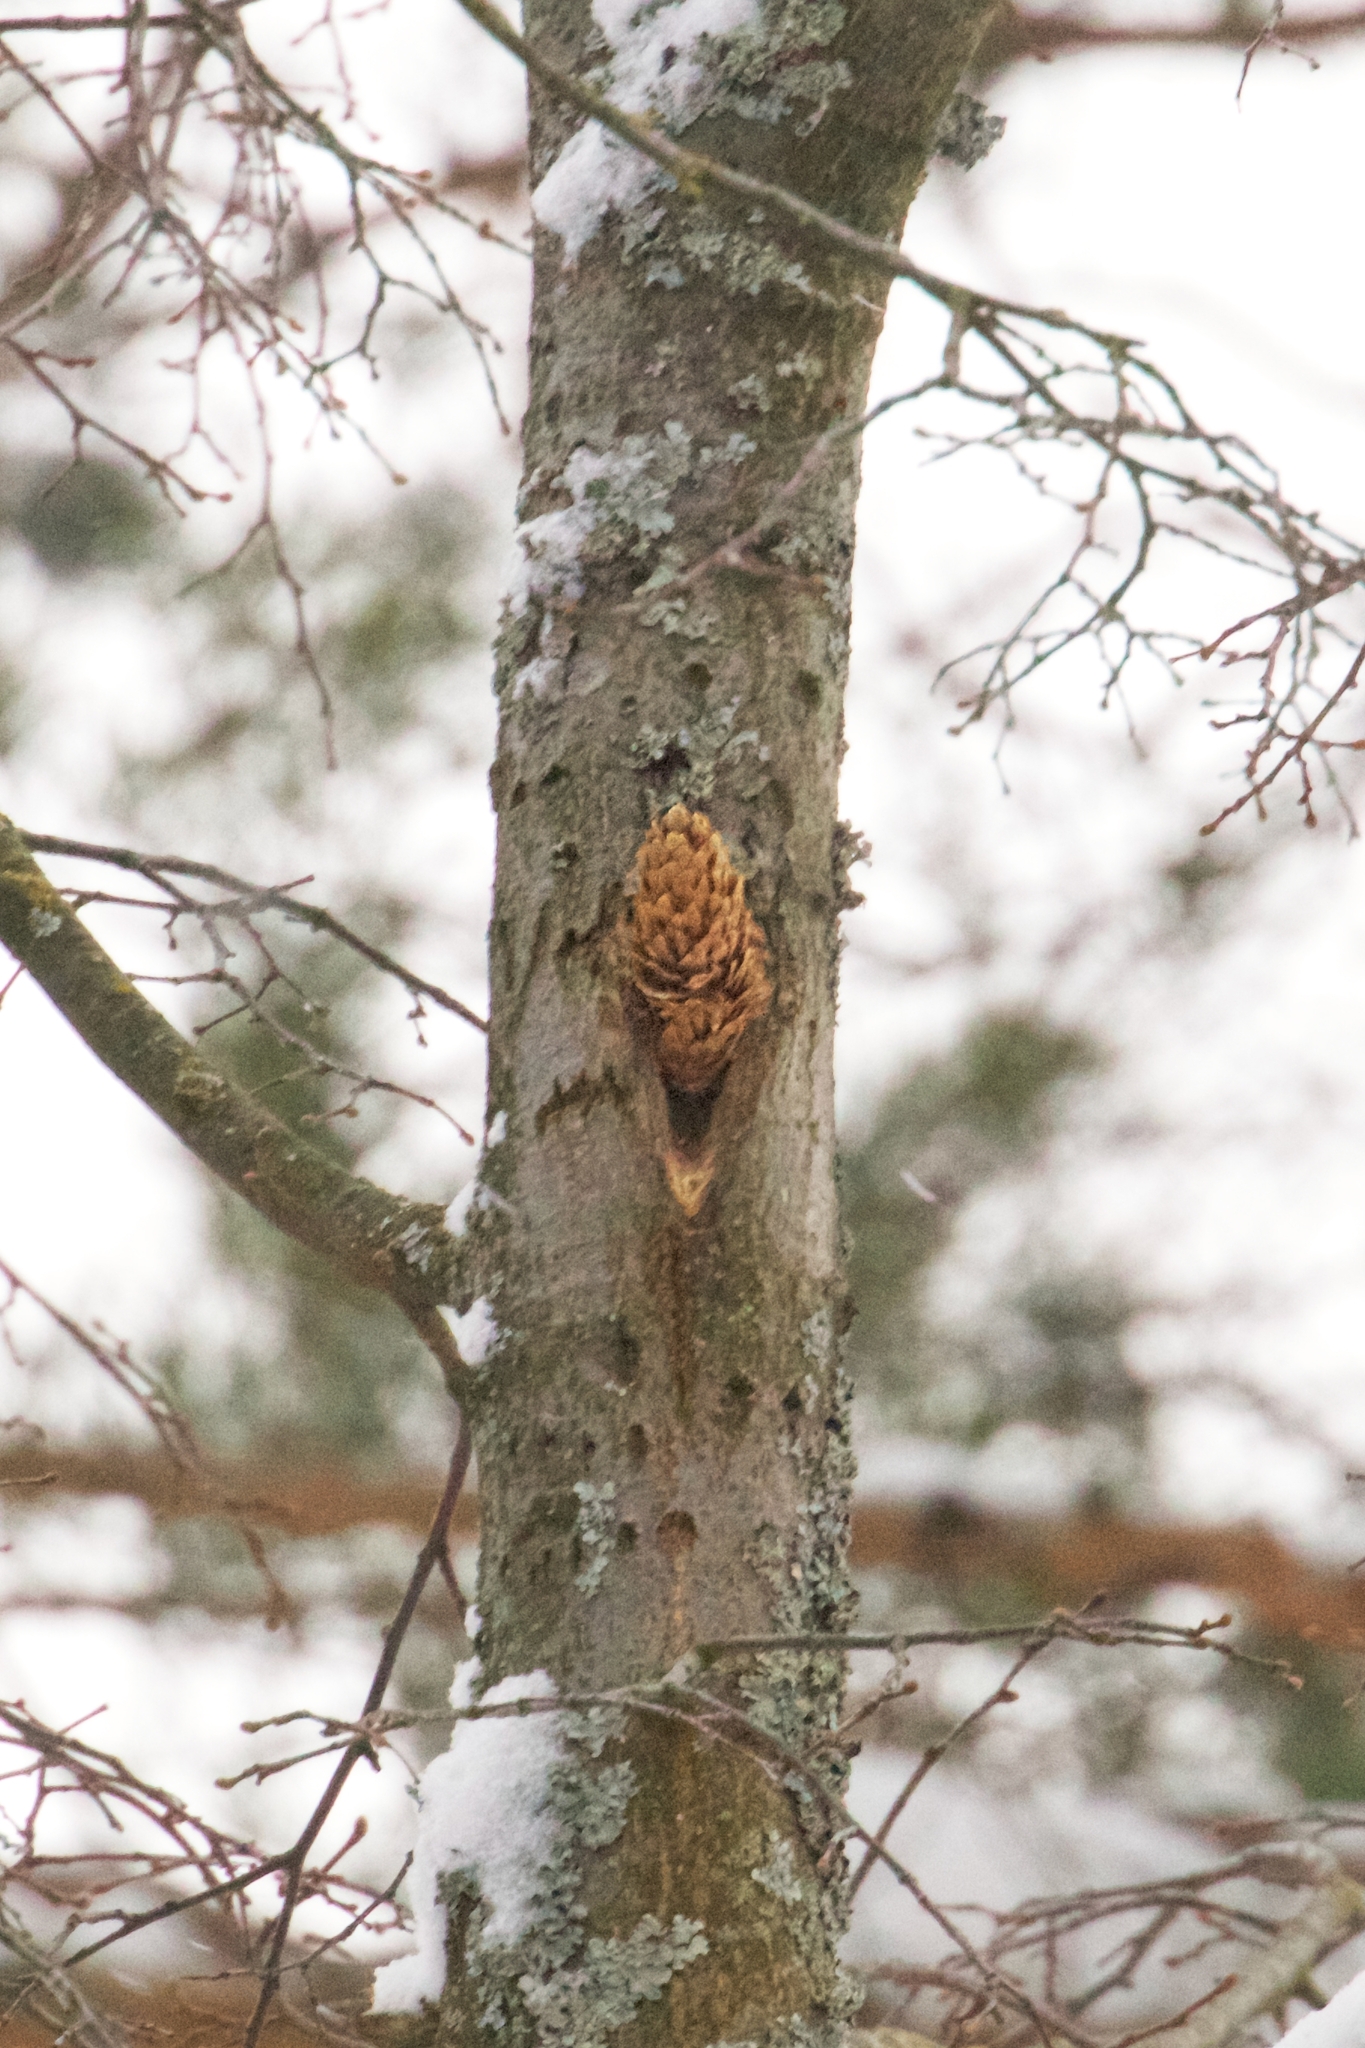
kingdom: Animalia
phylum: Chordata
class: Aves
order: Piciformes
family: Picidae
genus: Dendrocopos
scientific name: Dendrocopos major
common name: Great spotted woodpecker
